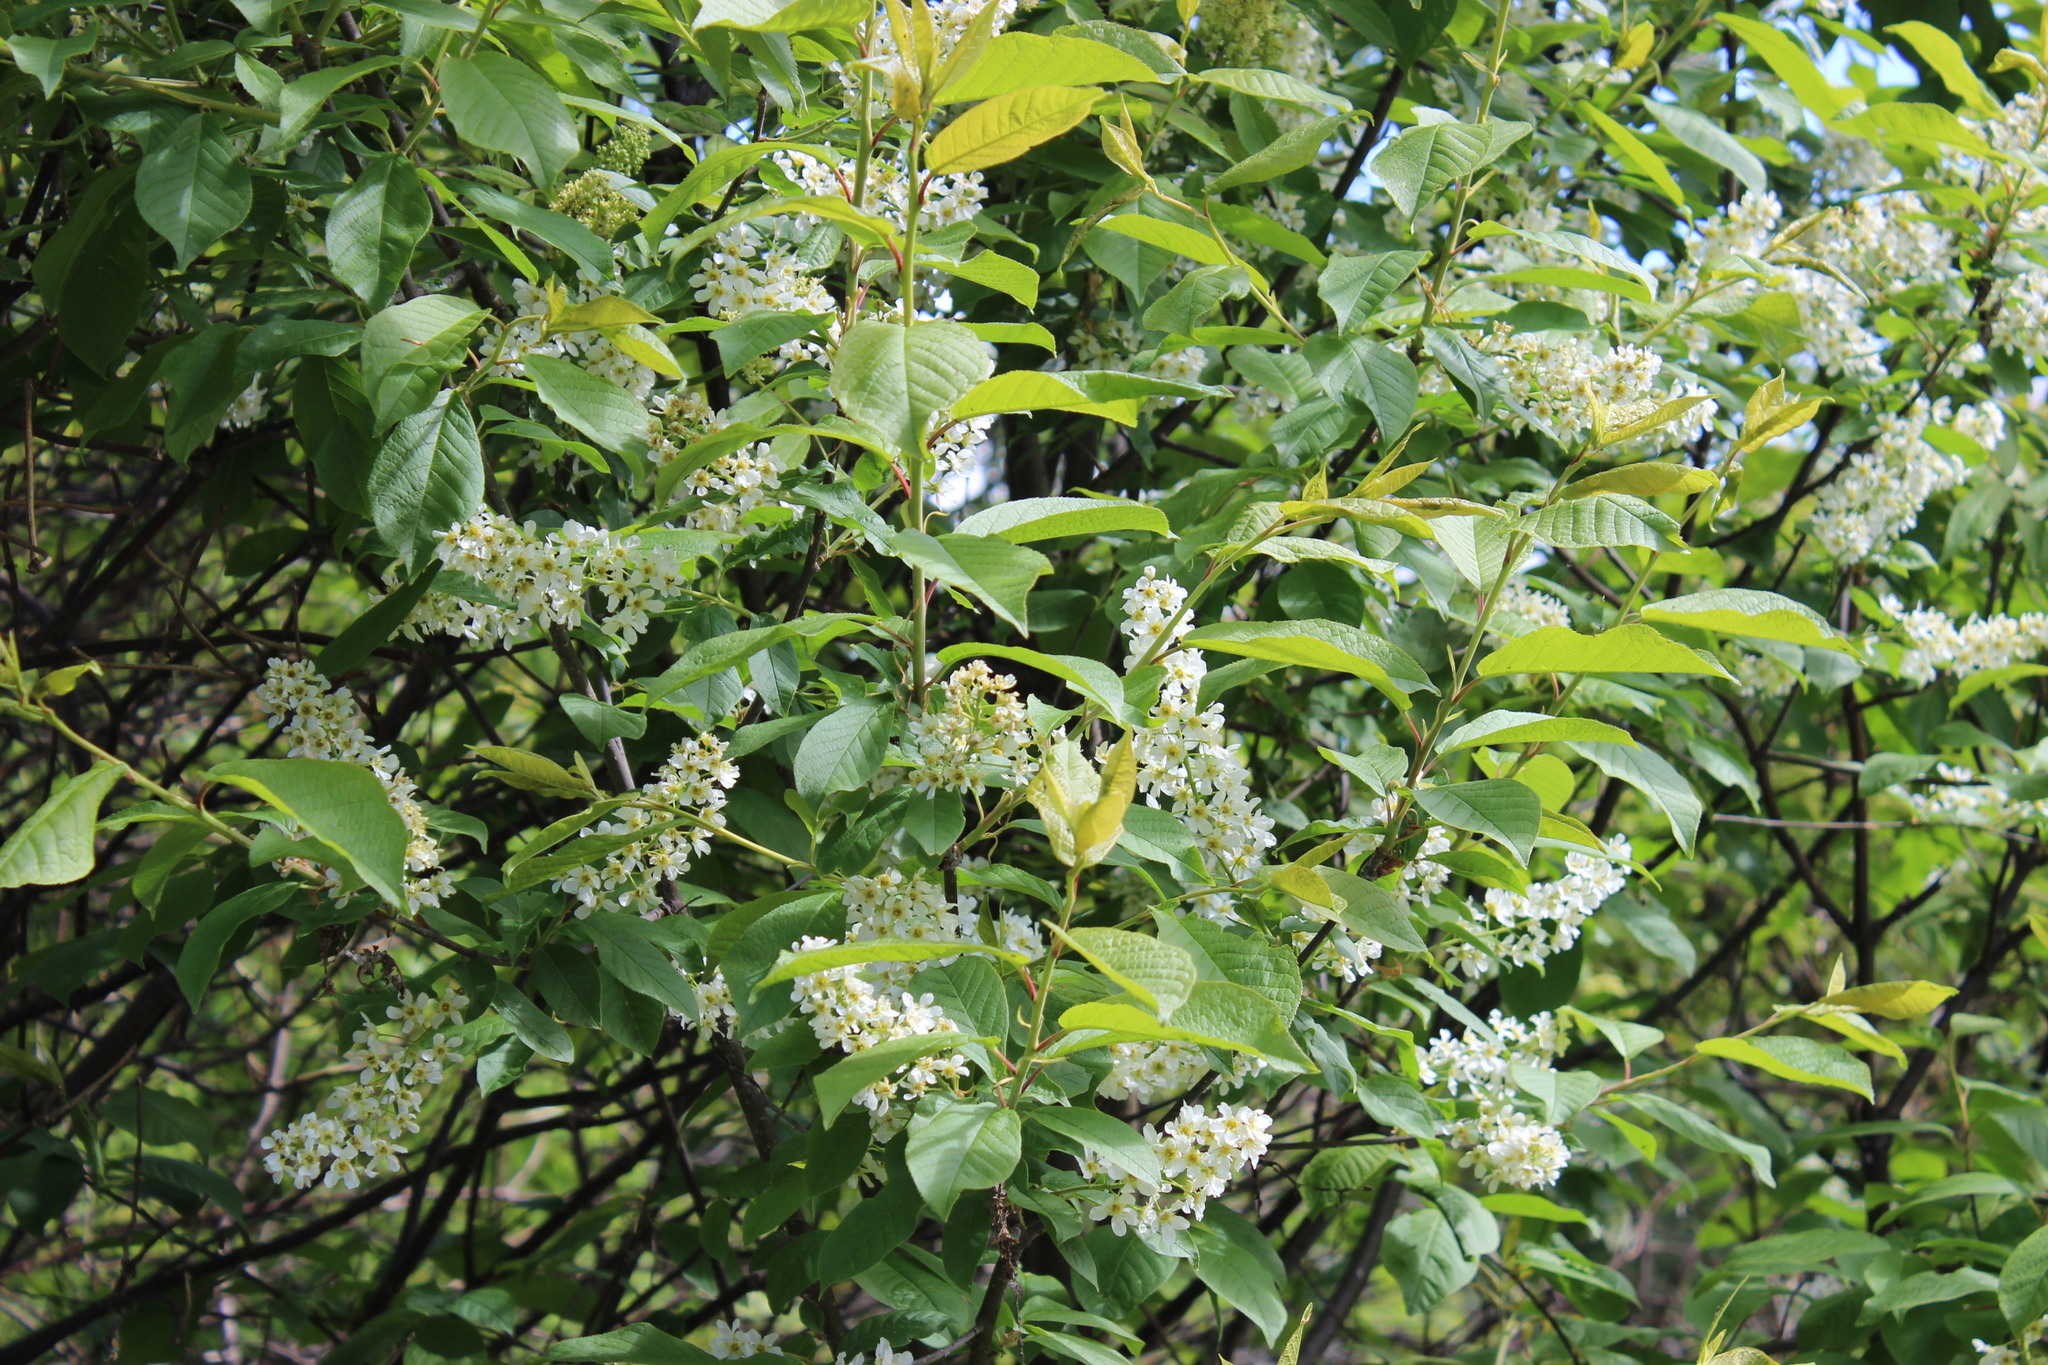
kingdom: Plantae
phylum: Tracheophyta
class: Magnoliopsida
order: Rosales
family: Rosaceae
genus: Prunus
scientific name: Prunus padus
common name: Bird cherry
